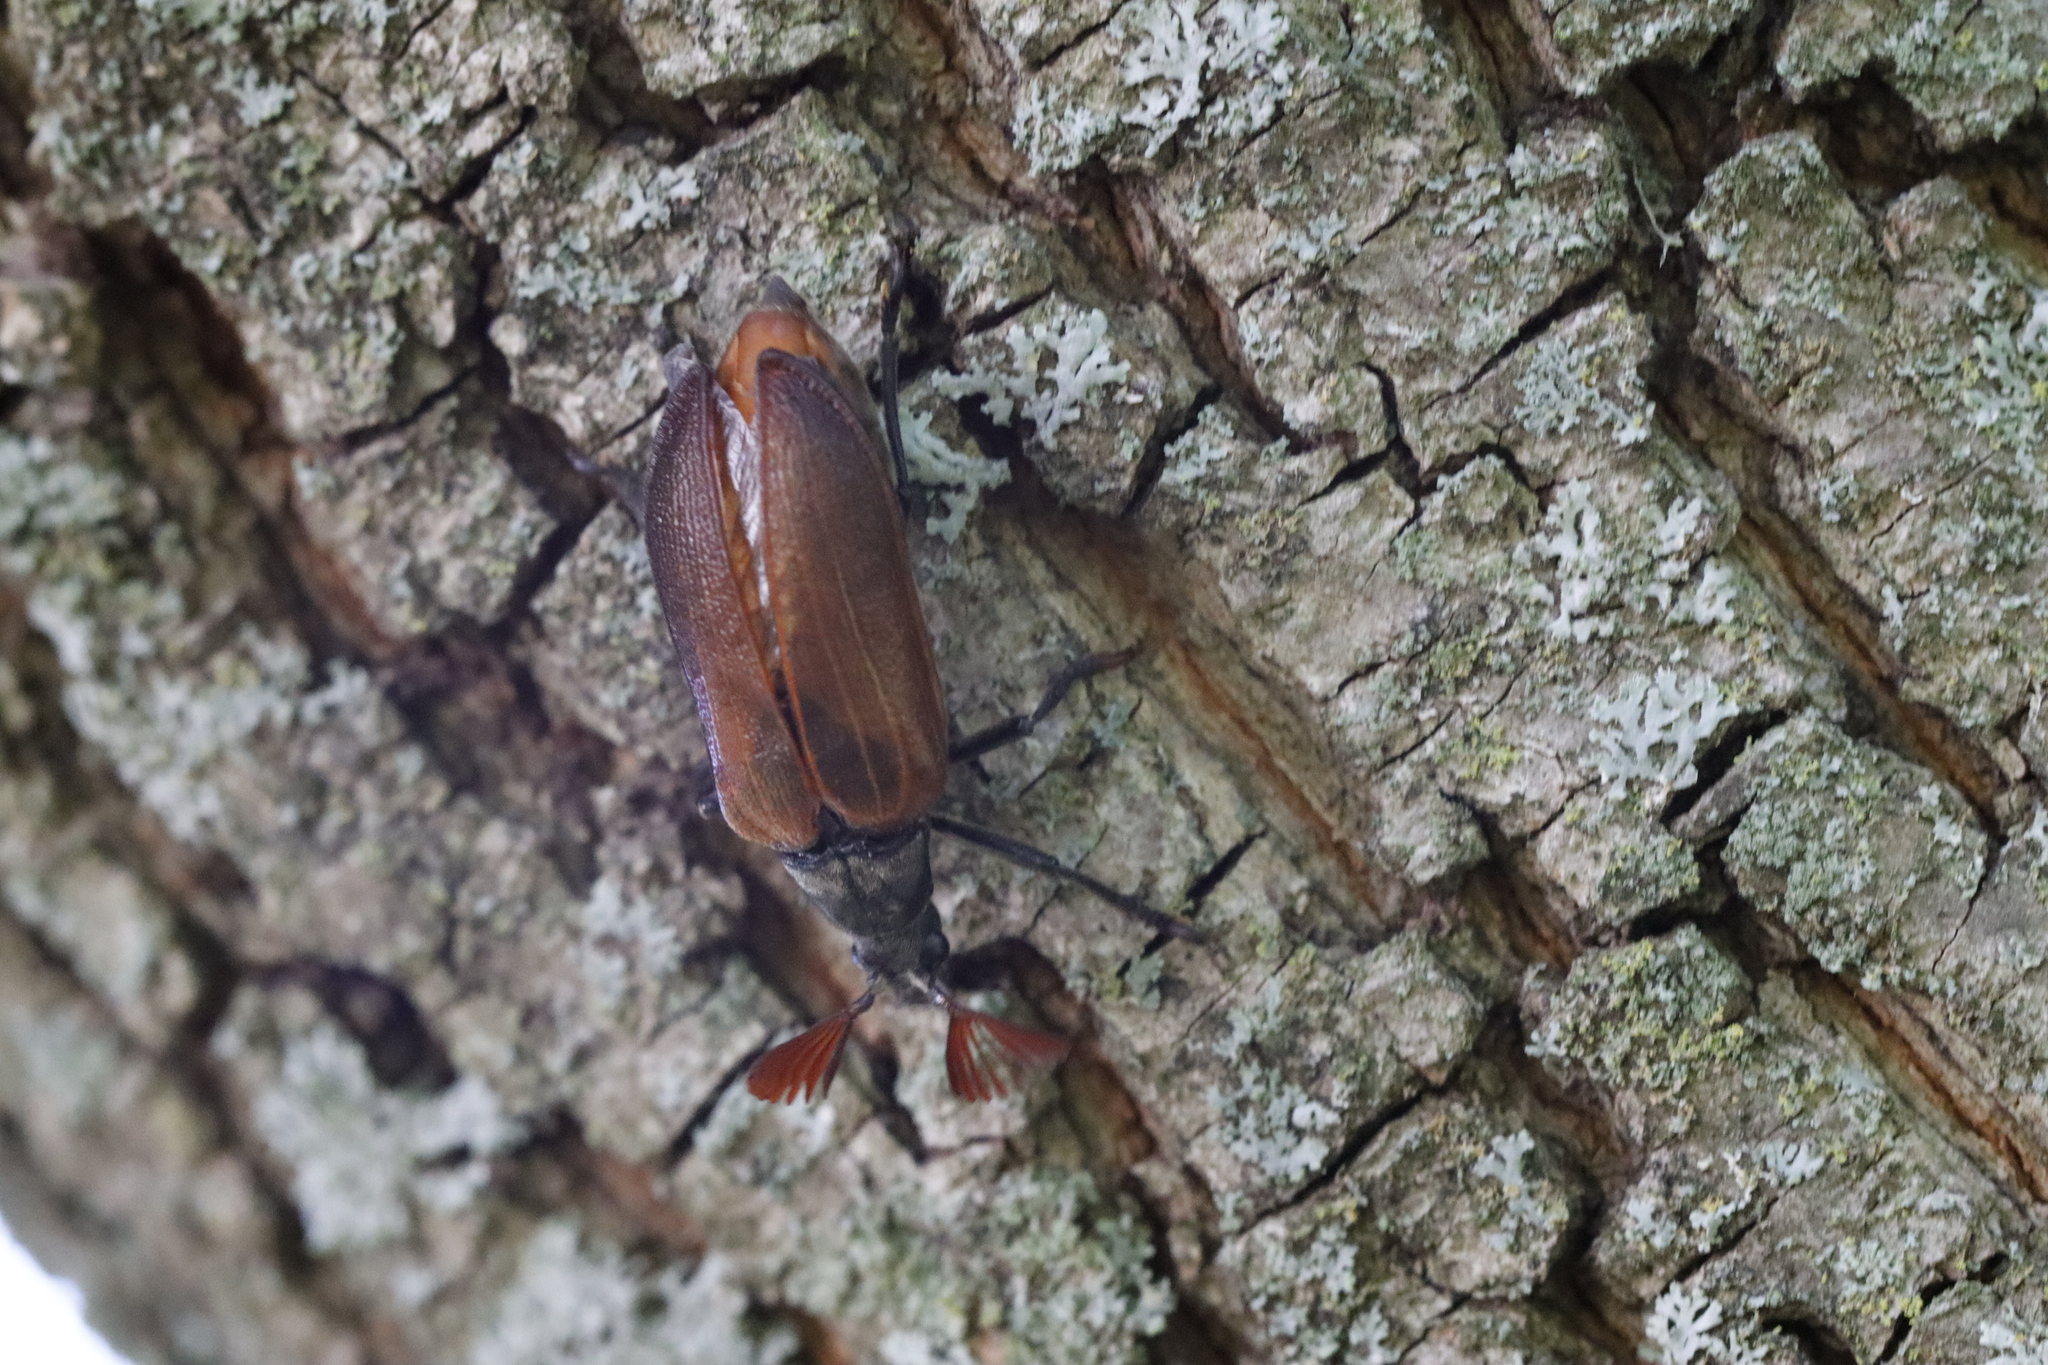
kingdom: Animalia
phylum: Arthropoda
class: Insecta
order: Coleoptera
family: Rhipiceridae
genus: Sandalus
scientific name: Sandalus niger
